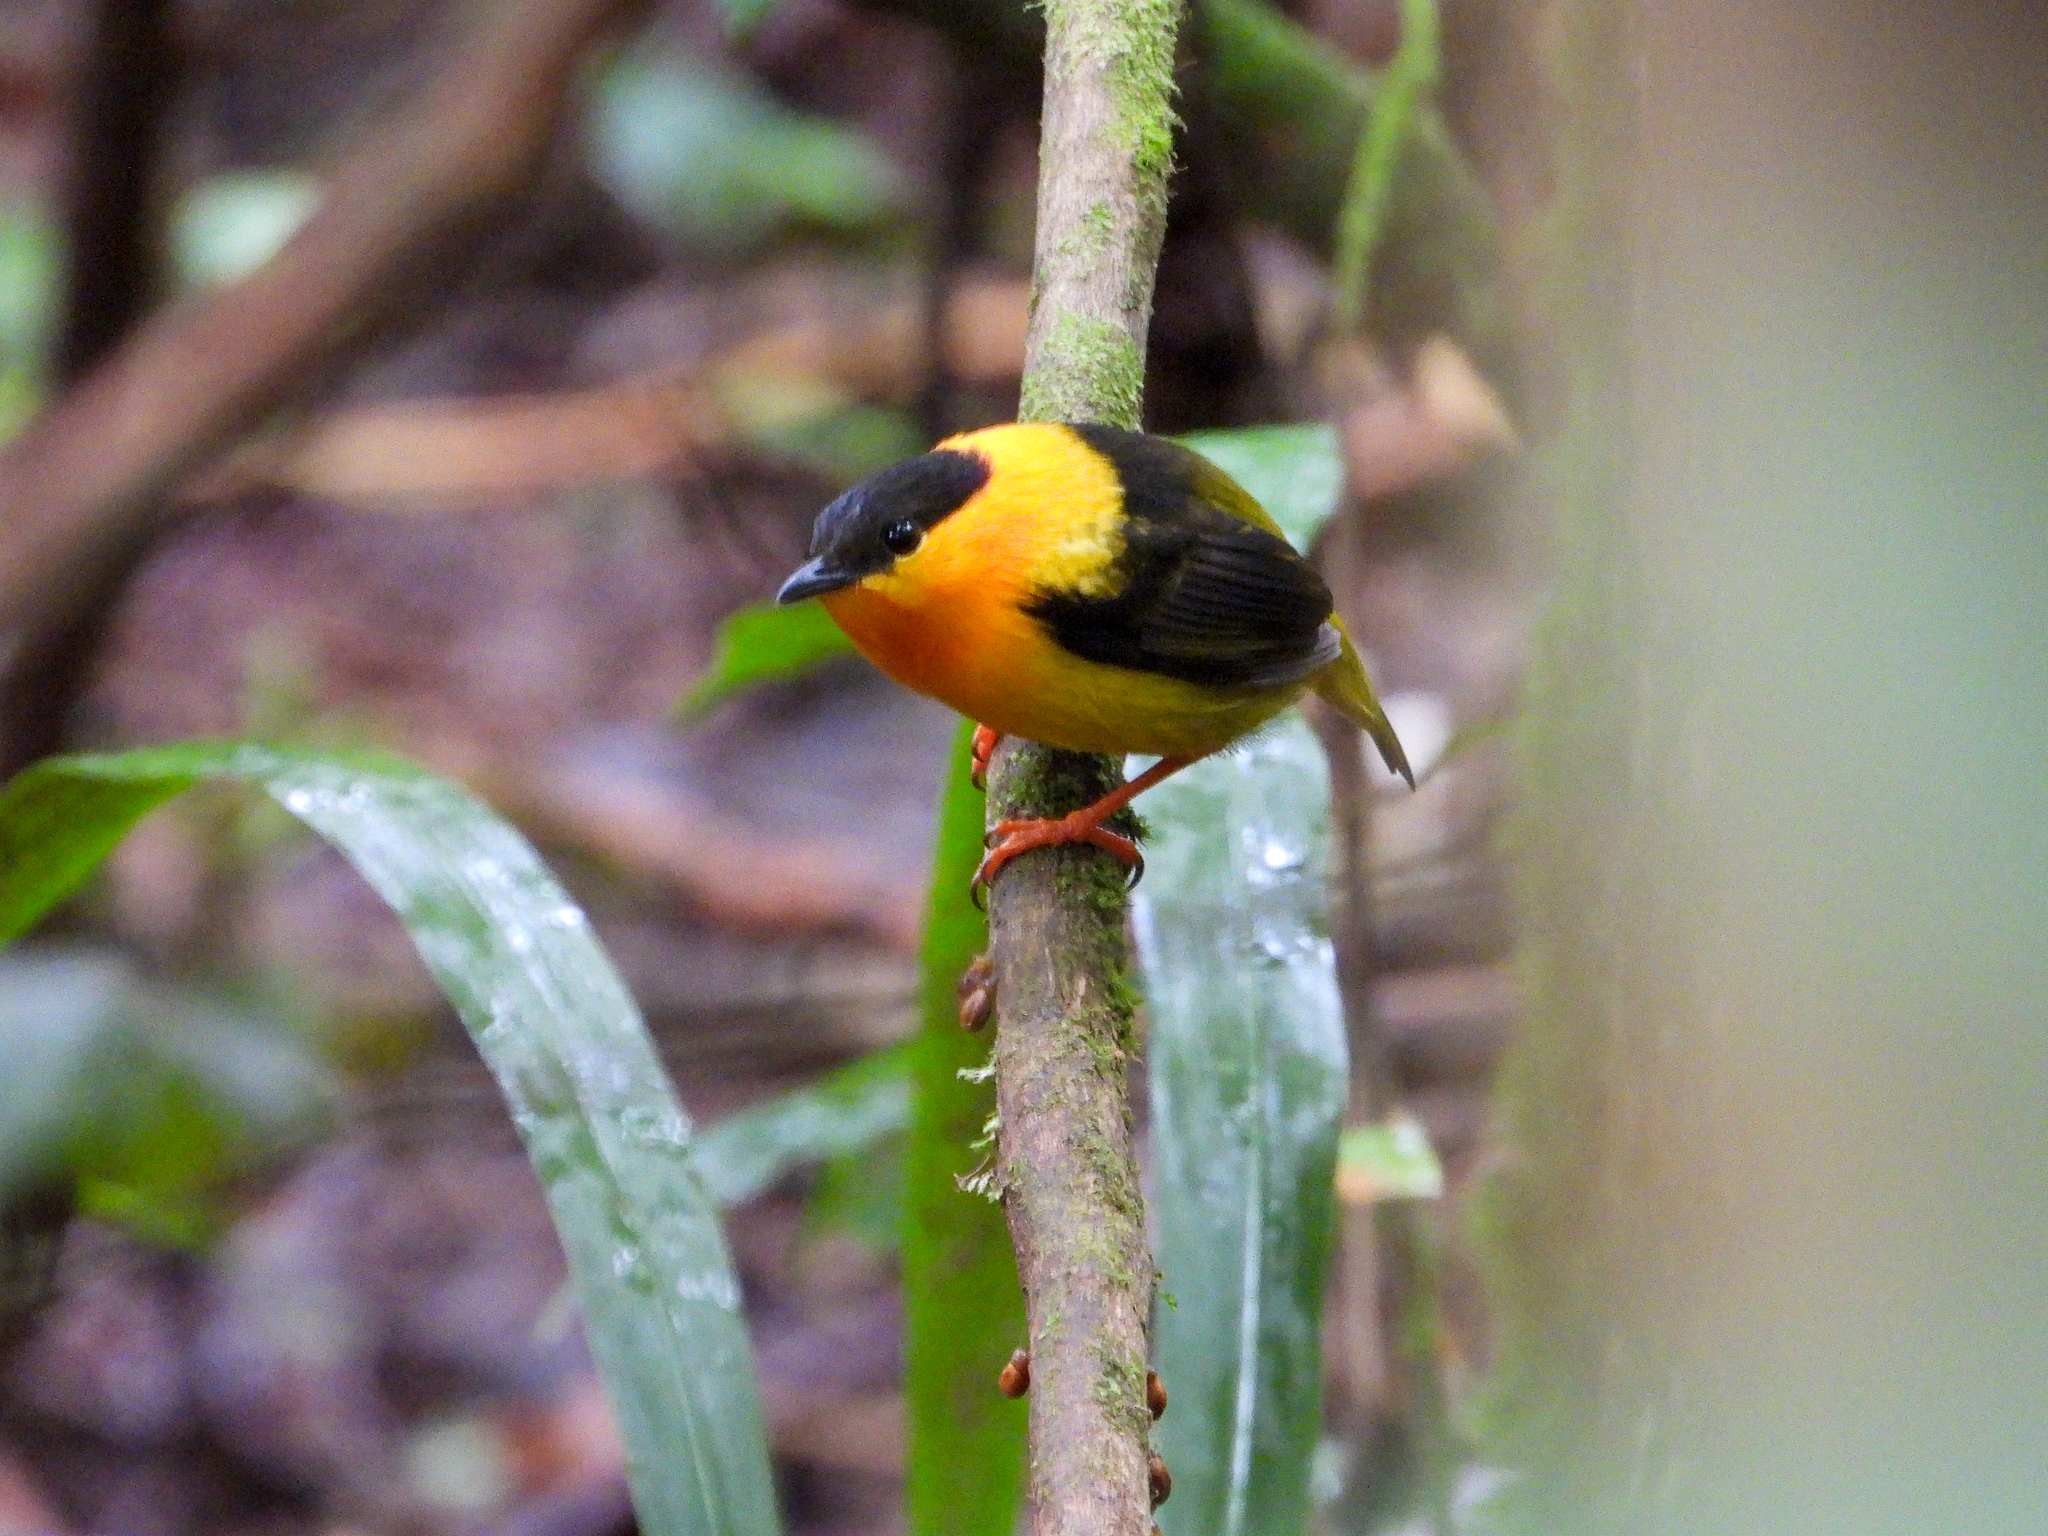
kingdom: Animalia
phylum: Chordata
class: Aves
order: Passeriformes
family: Pipridae
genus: Manacus
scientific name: Manacus aurantiacus
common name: Orange-collared manakin
